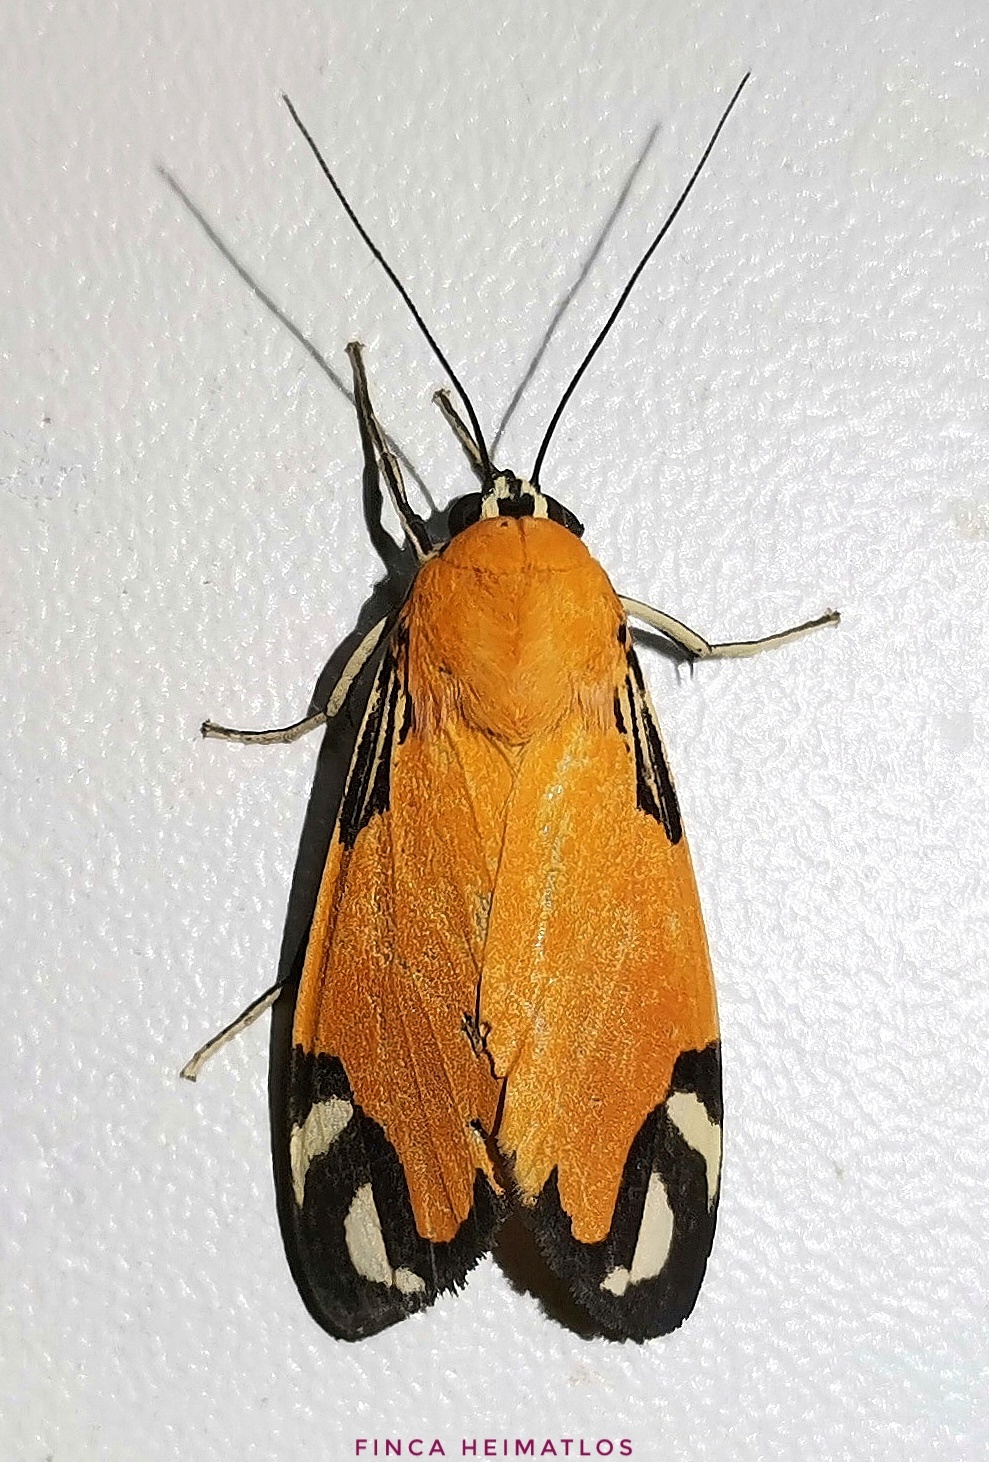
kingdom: Animalia
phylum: Arthropoda
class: Insecta
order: Lepidoptera
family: Erebidae
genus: Ormetica
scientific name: Ormetica zenzeroides
